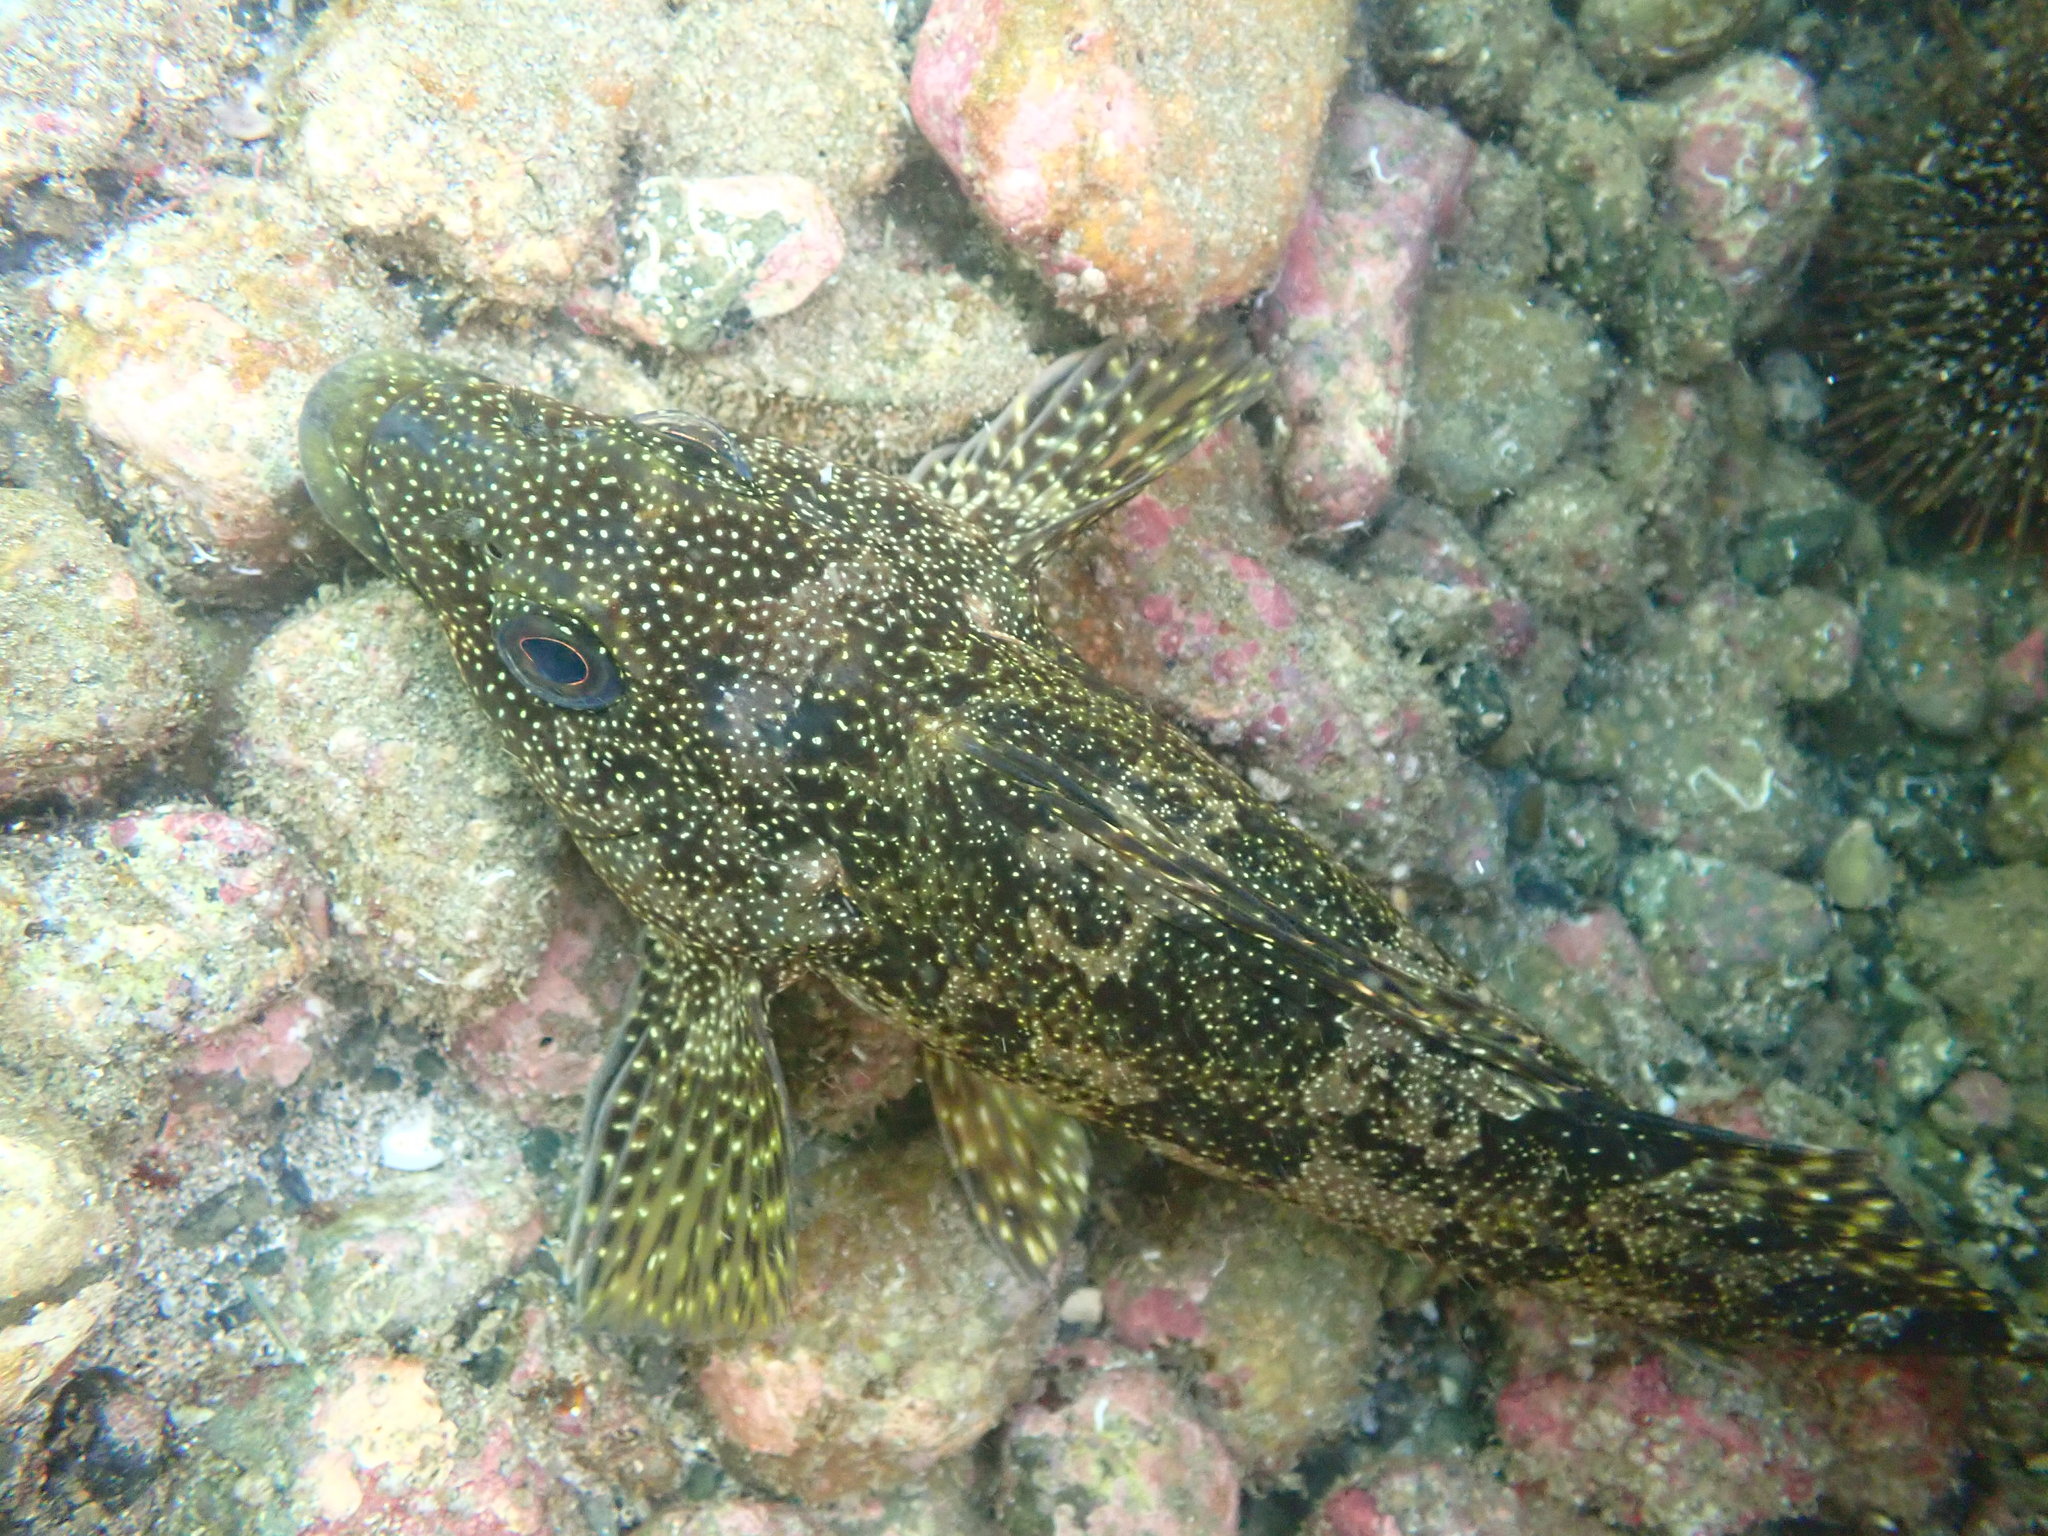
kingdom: Animalia
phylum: Chordata
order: Perciformes
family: Chironemidae
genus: Chironemus
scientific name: Chironemus marmoratus
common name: Kelpfish
